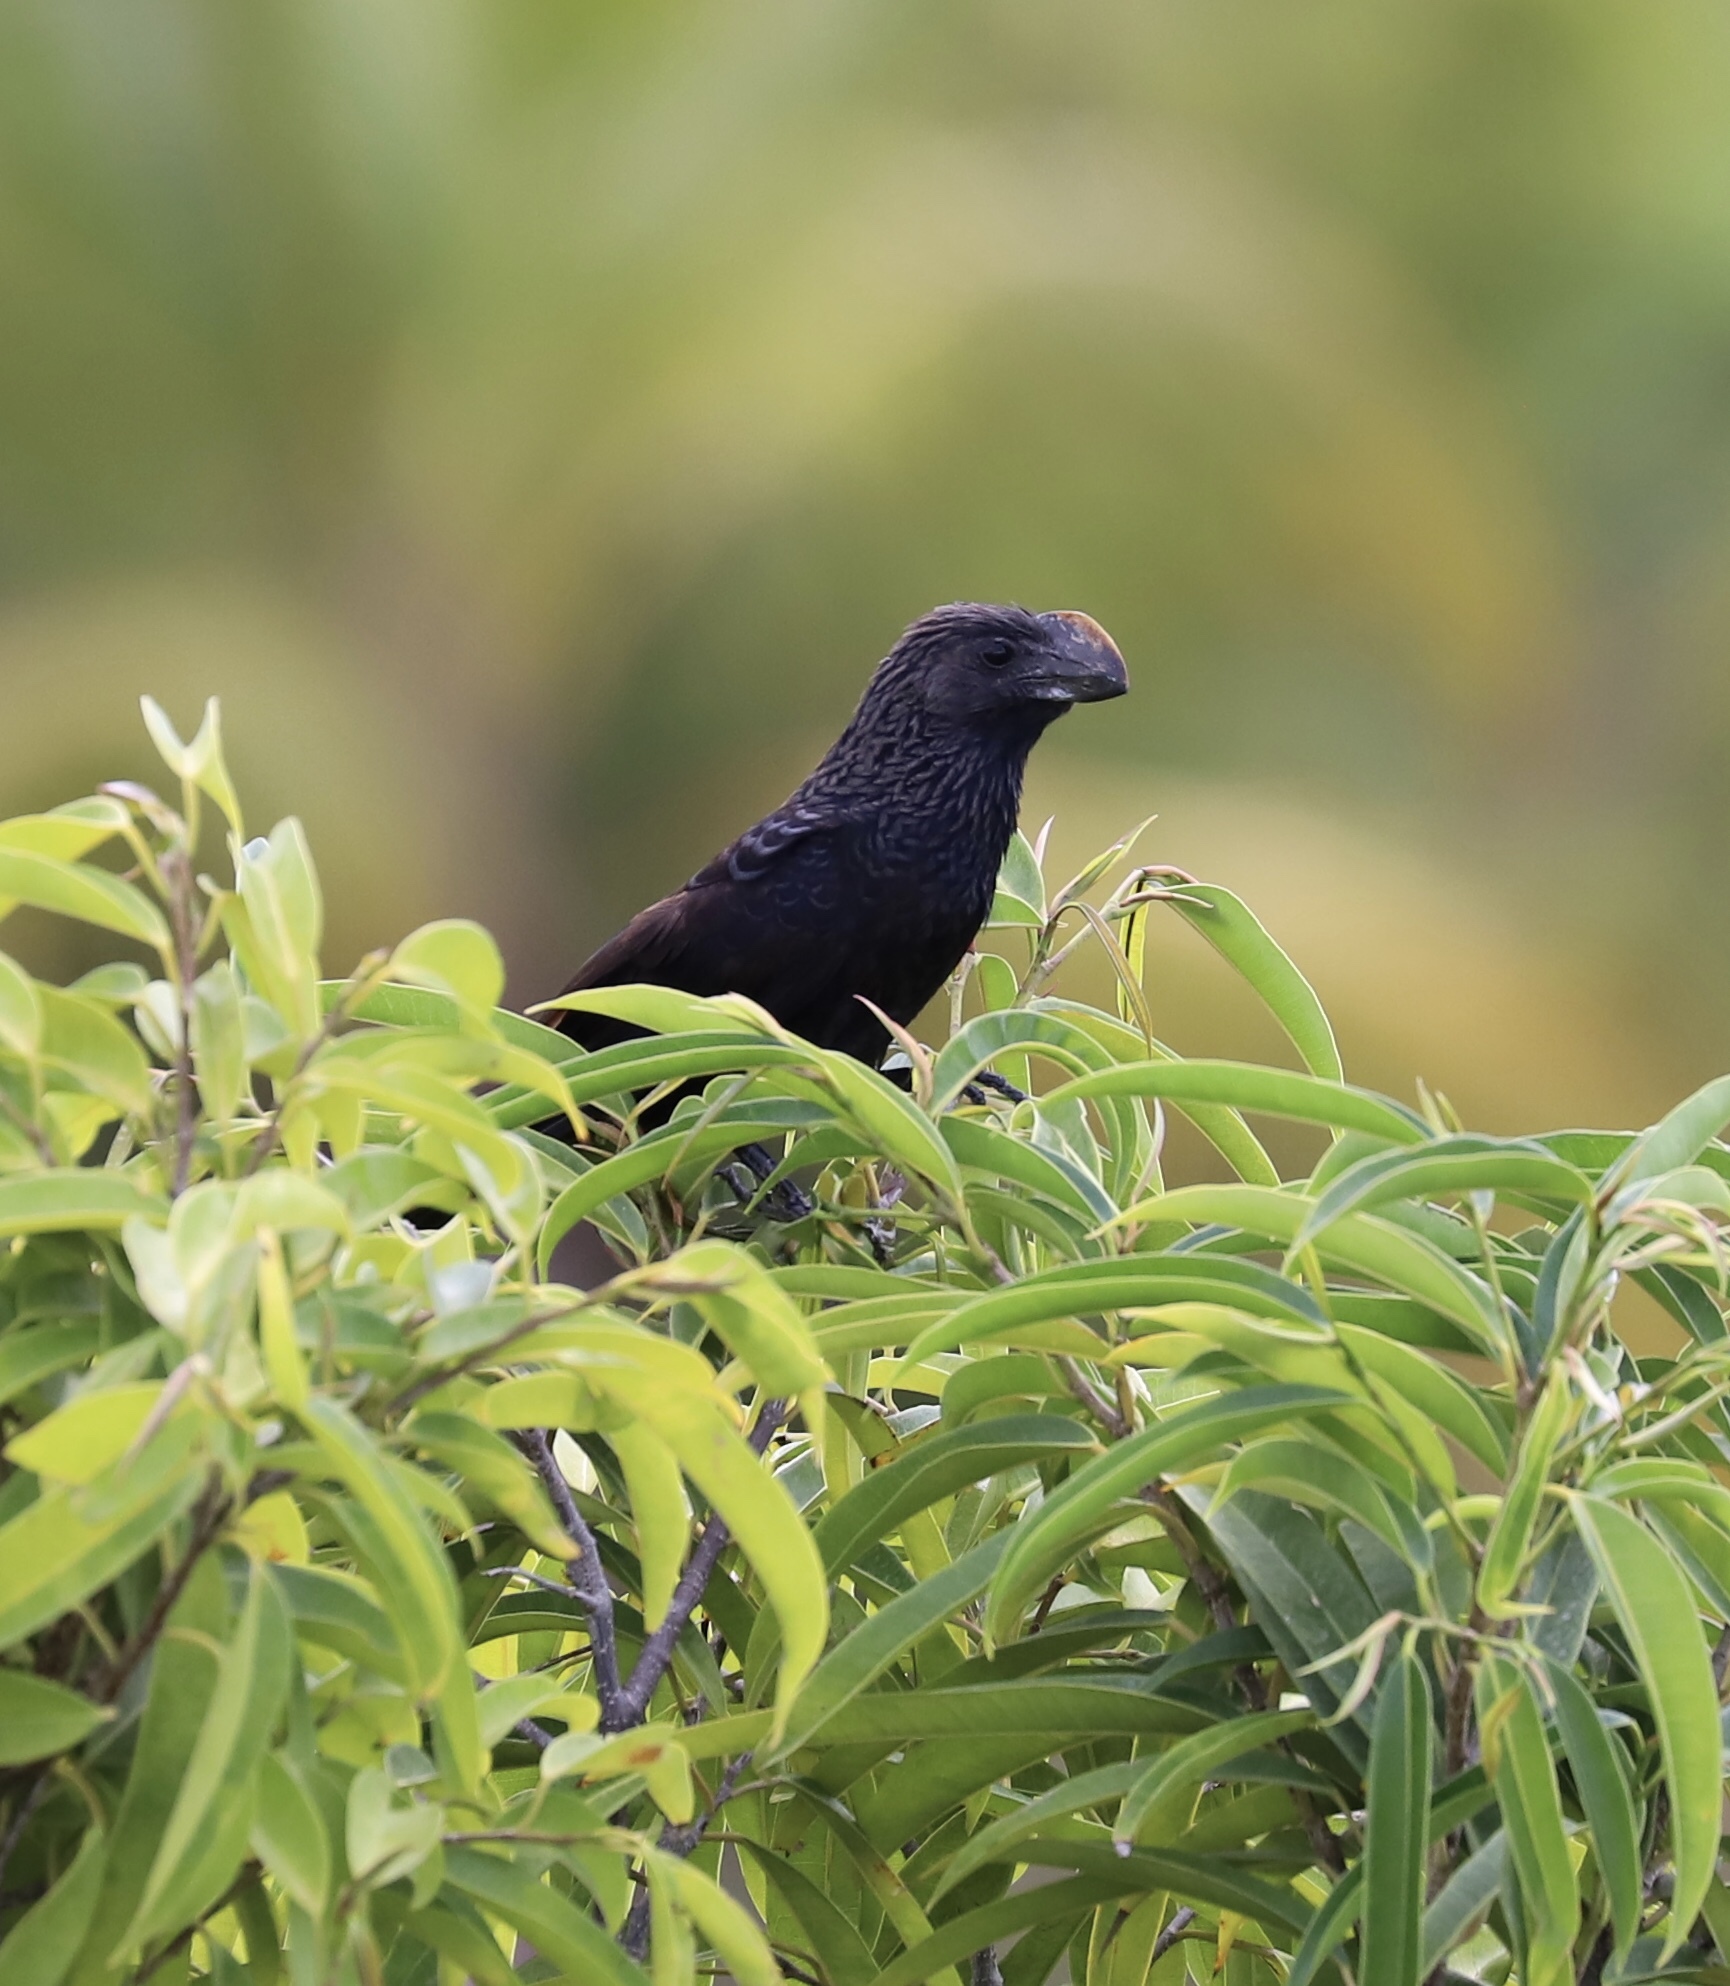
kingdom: Animalia
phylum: Chordata
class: Aves
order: Cuculiformes
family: Cuculidae
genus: Crotophaga
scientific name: Crotophaga ani
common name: Smooth-billed ani
